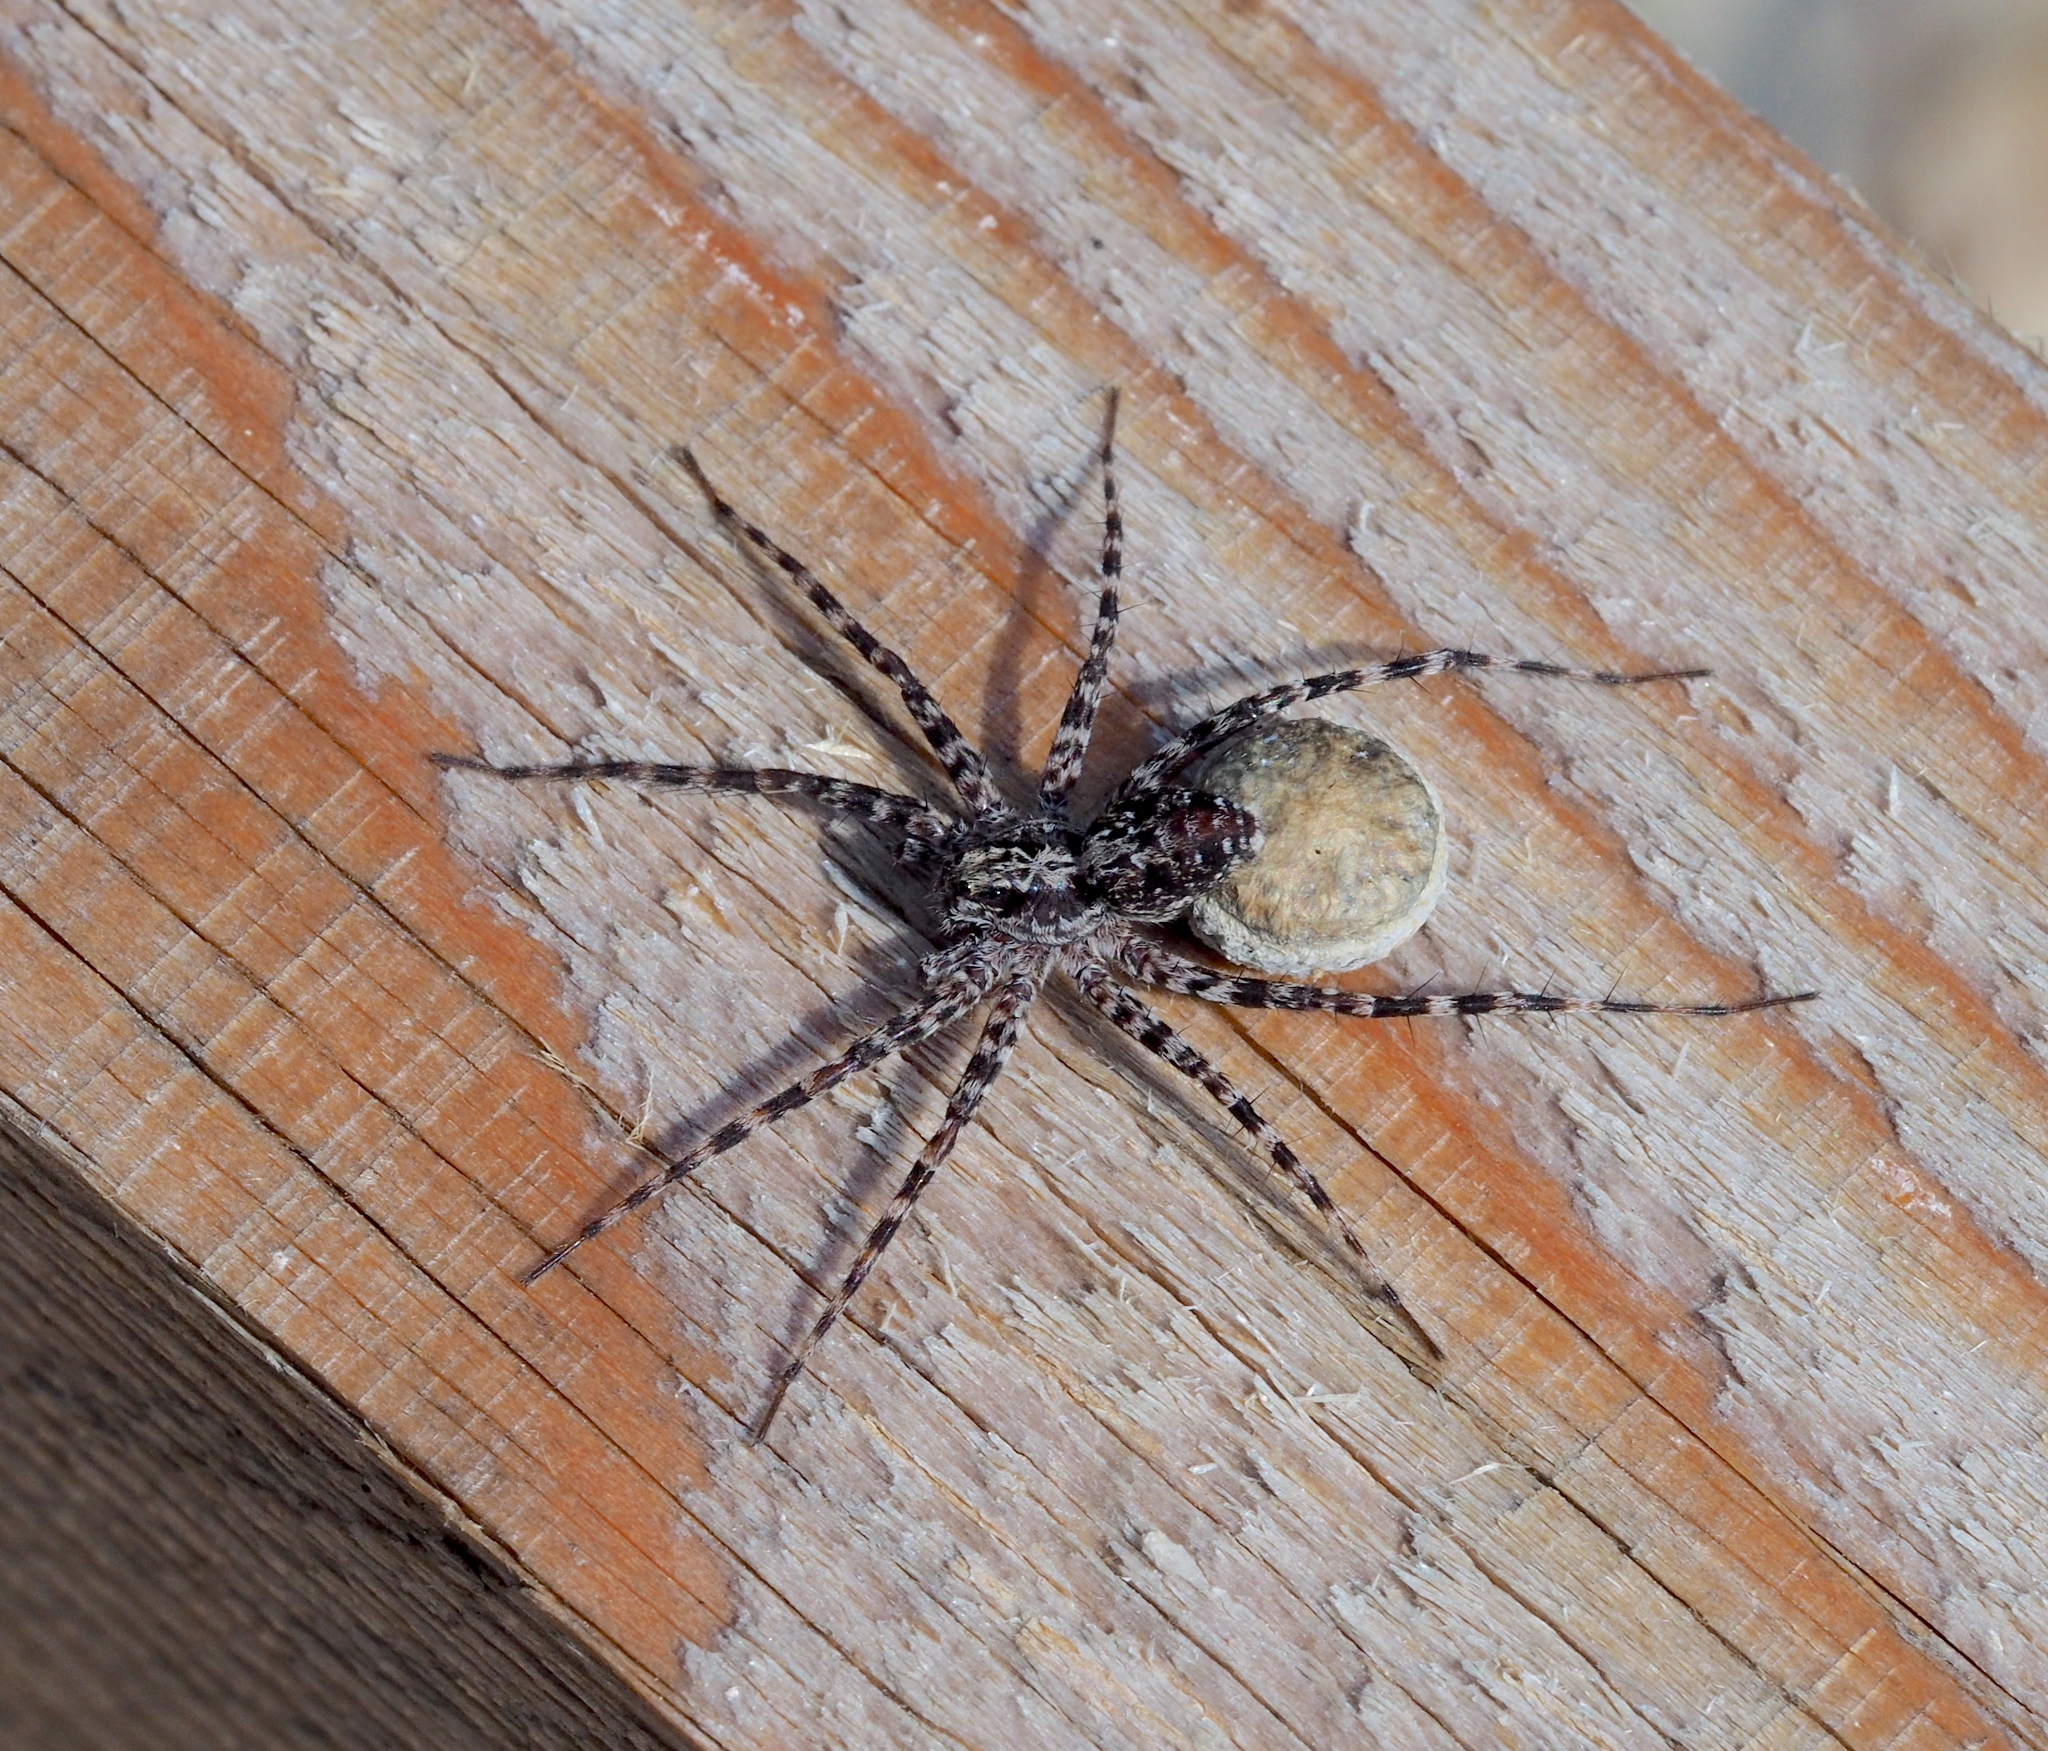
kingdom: Animalia
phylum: Arthropoda
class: Arachnida
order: Araneae
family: Lycosidae
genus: Acantholycosa
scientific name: Acantholycosa lignaria
